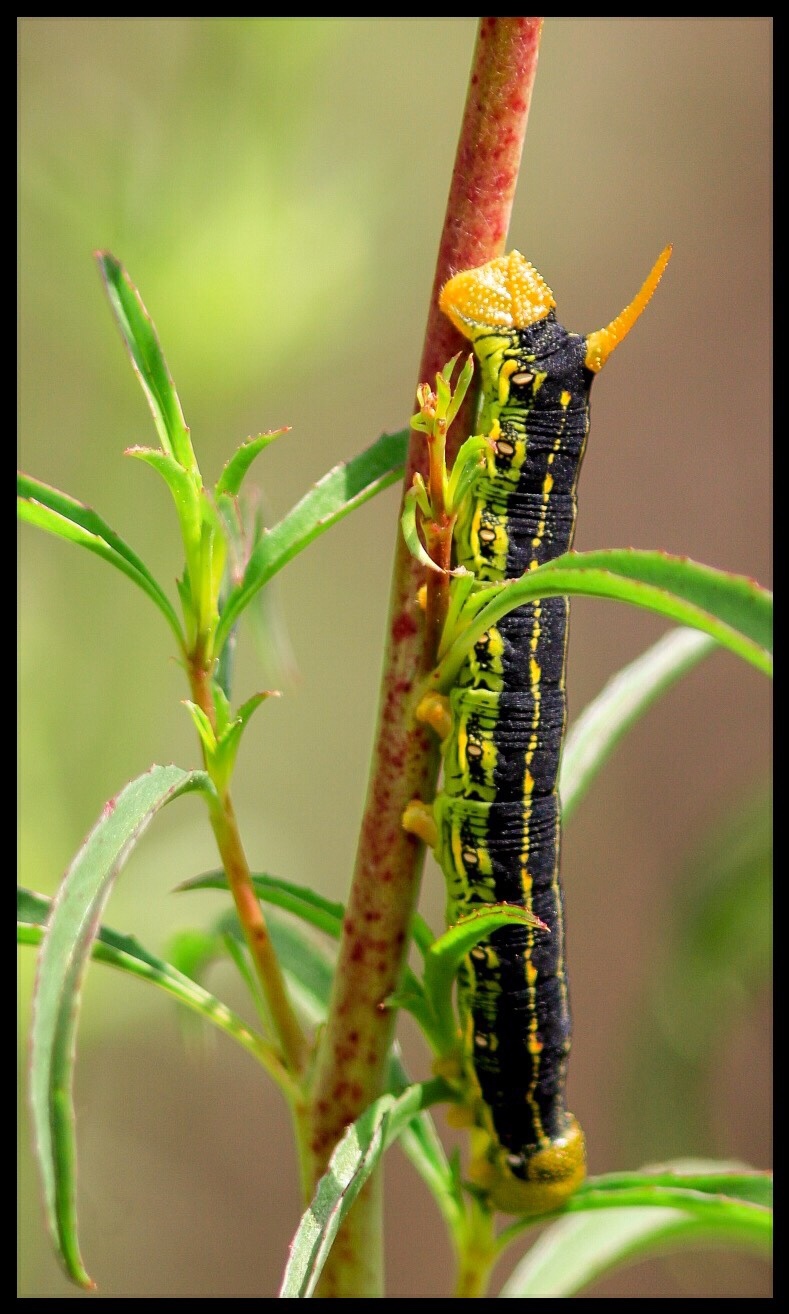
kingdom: Animalia
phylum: Arthropoda
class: Insecta
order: Lepidoptera
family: Sphingidae
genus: Hyles
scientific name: Hyles lineata
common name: White-lined sphinx
